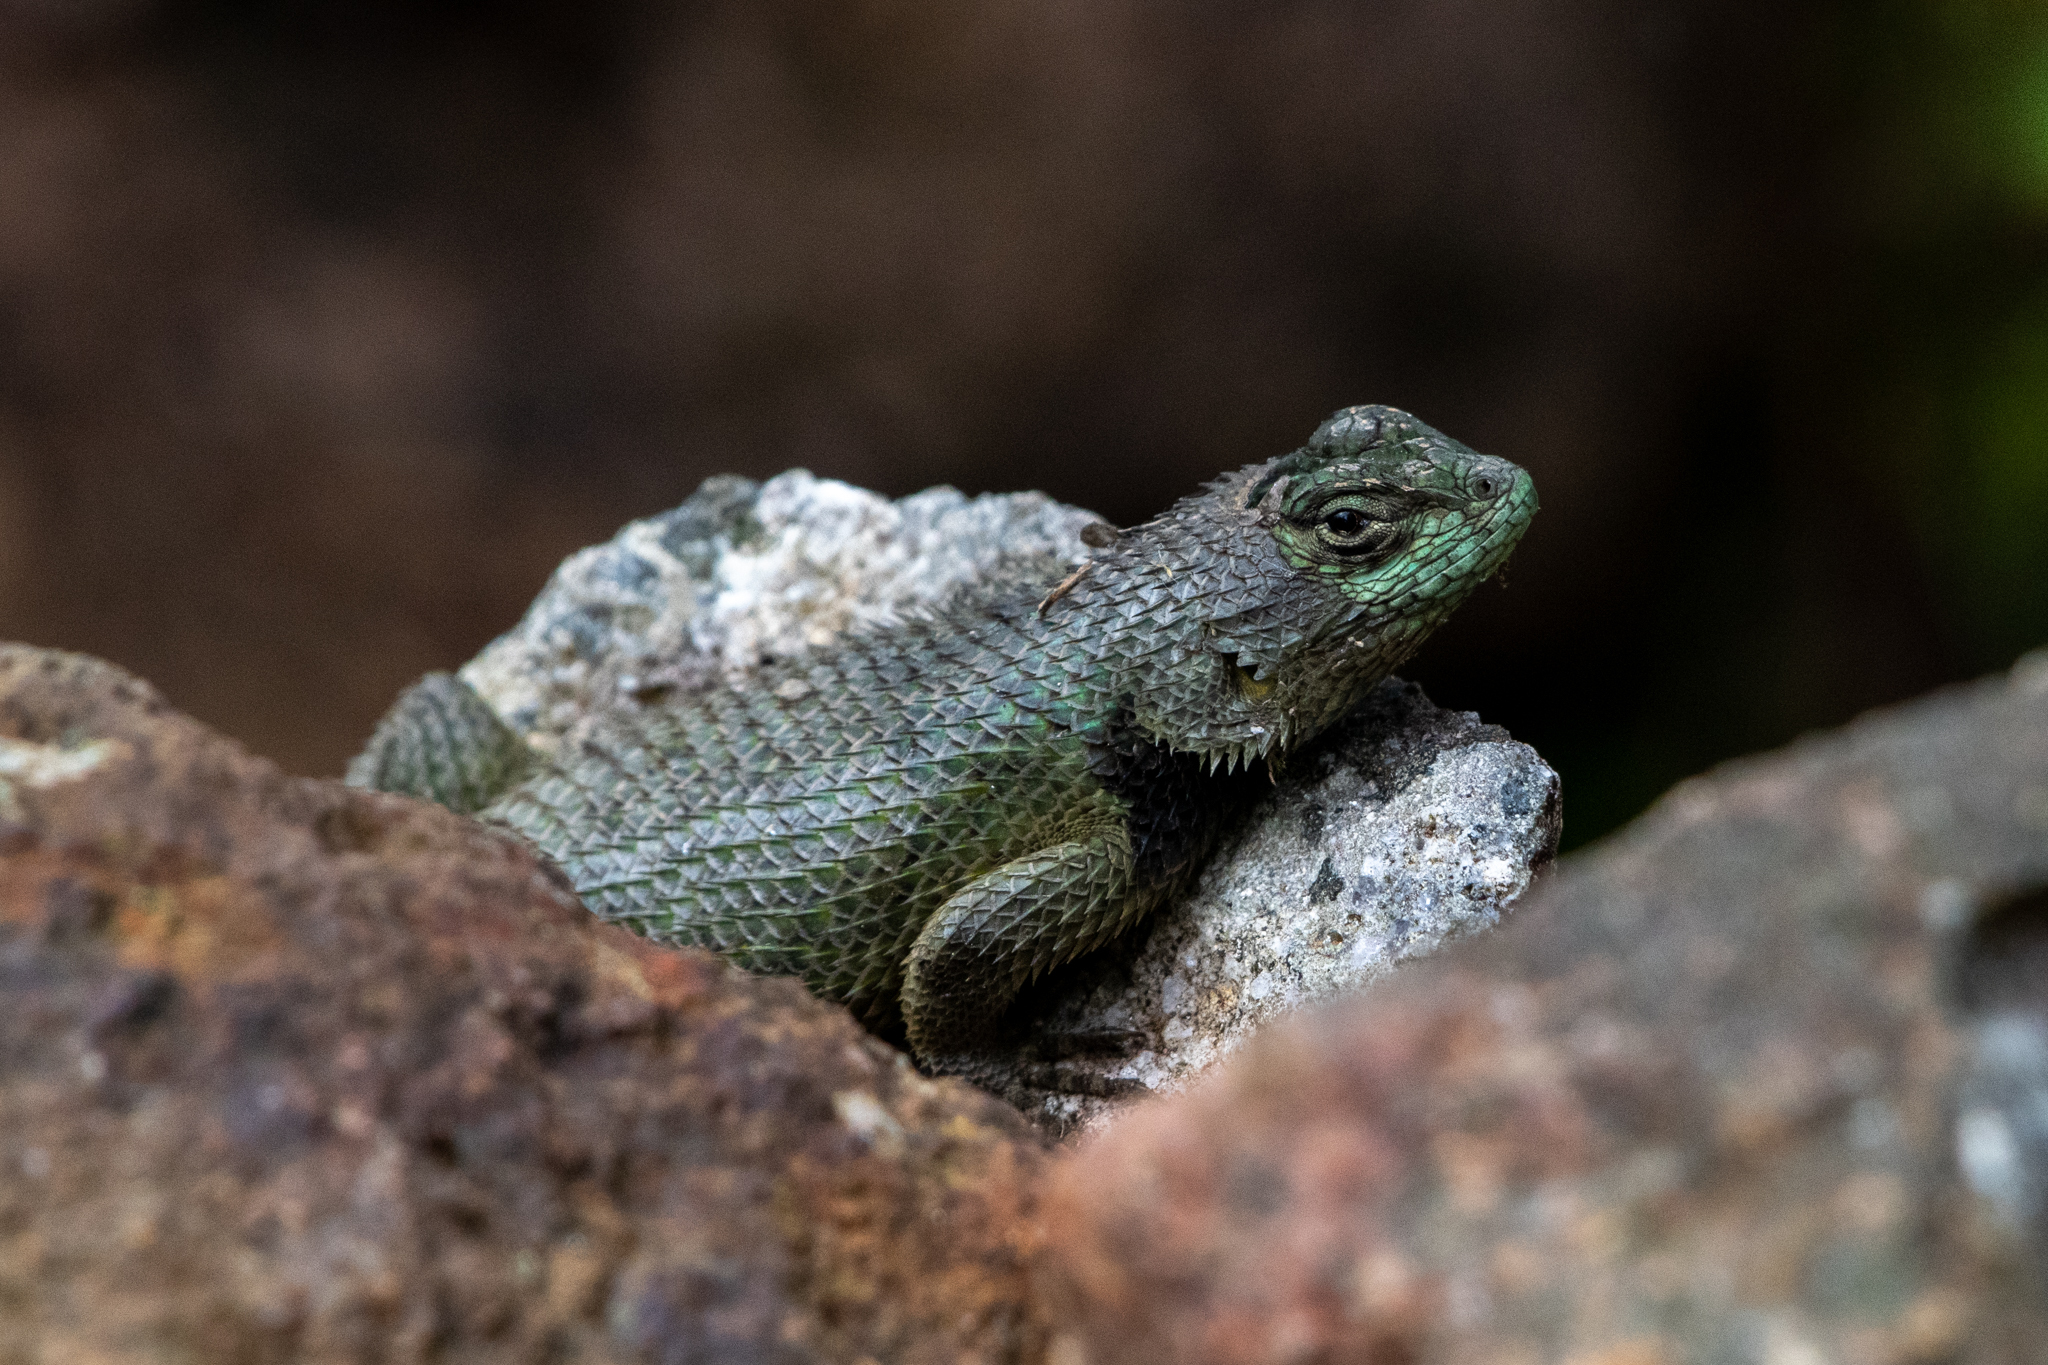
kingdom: Animalia
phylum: Chordata
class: Squamata
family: Phrynosomatidae
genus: Sceloporus
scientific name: Sceloporus hondurensis
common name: Honduran spiny lizard
